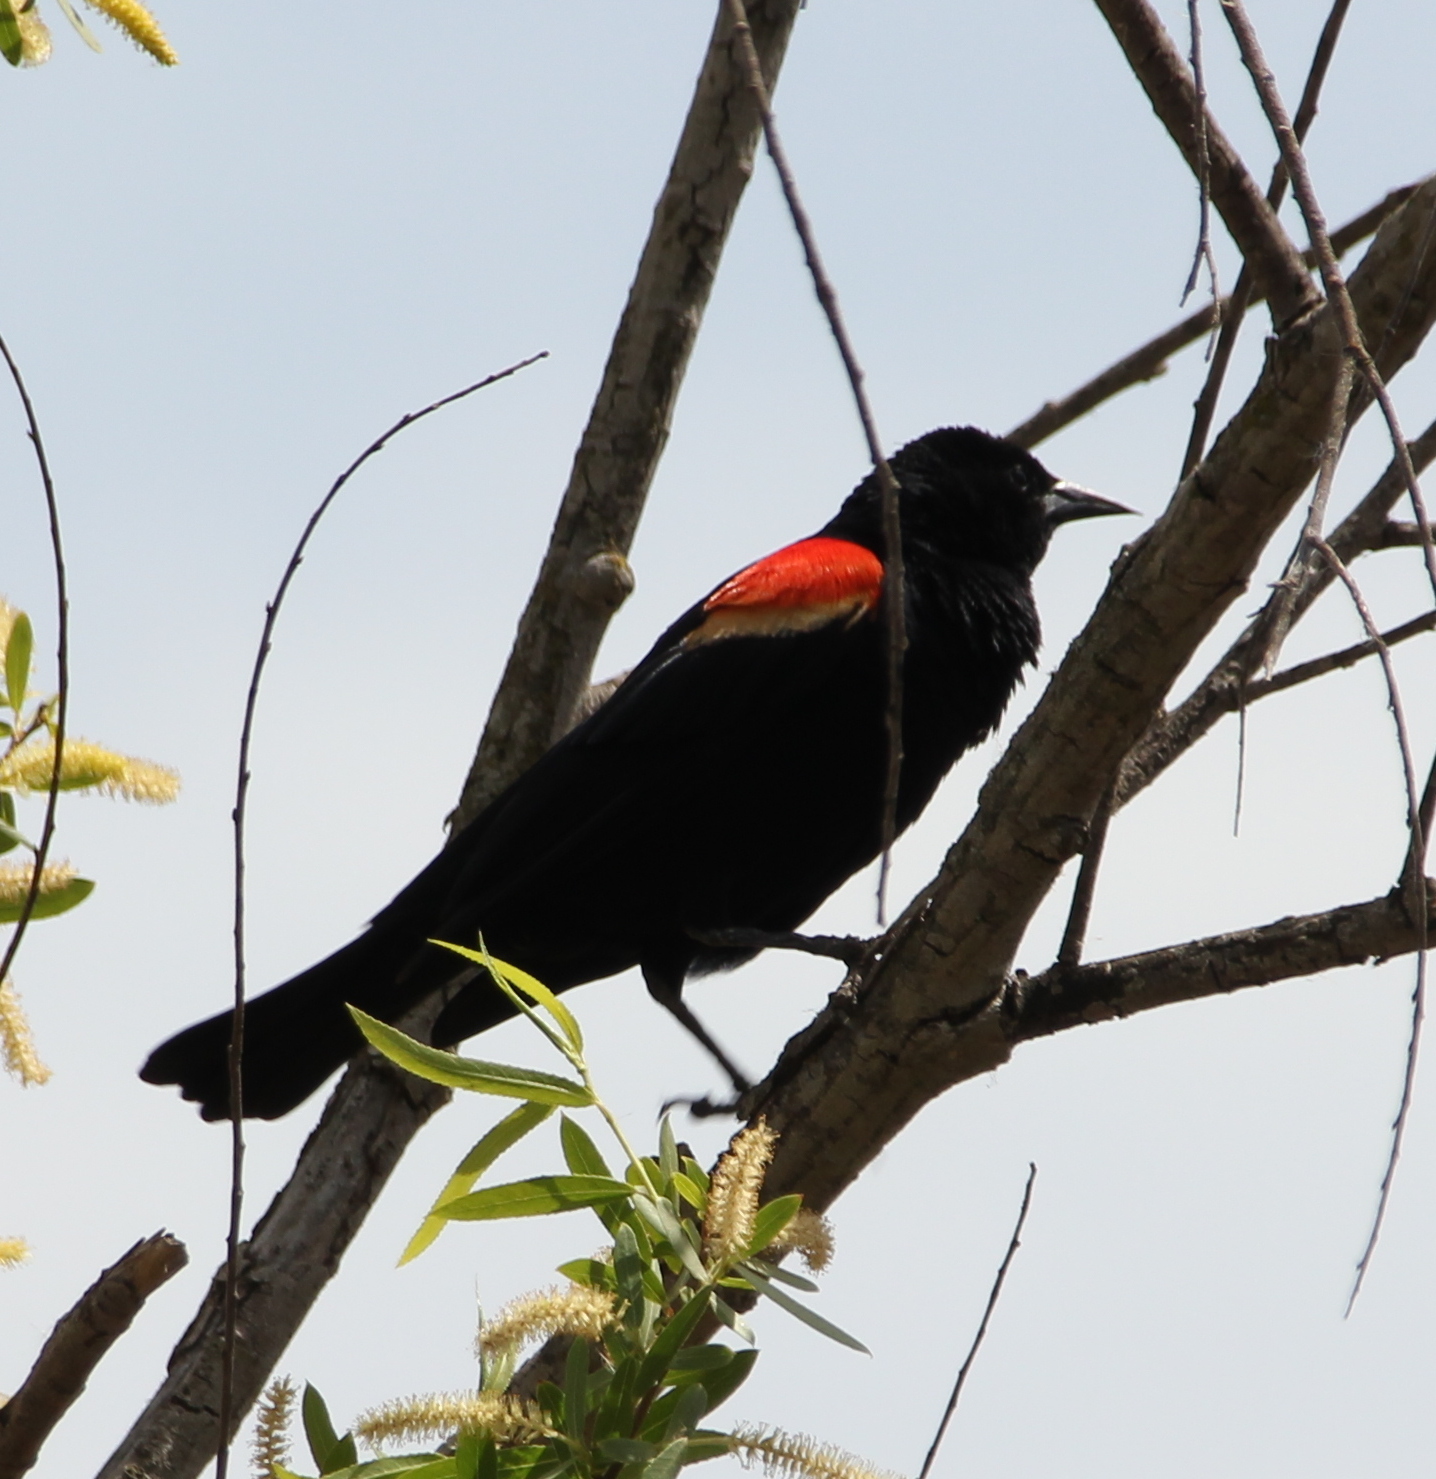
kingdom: Animalia
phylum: Chordata
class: Aves
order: Passeriformes
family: Icteridae
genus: Agelaius
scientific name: Agelaius phoeniceus
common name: Red-winged blackbird
